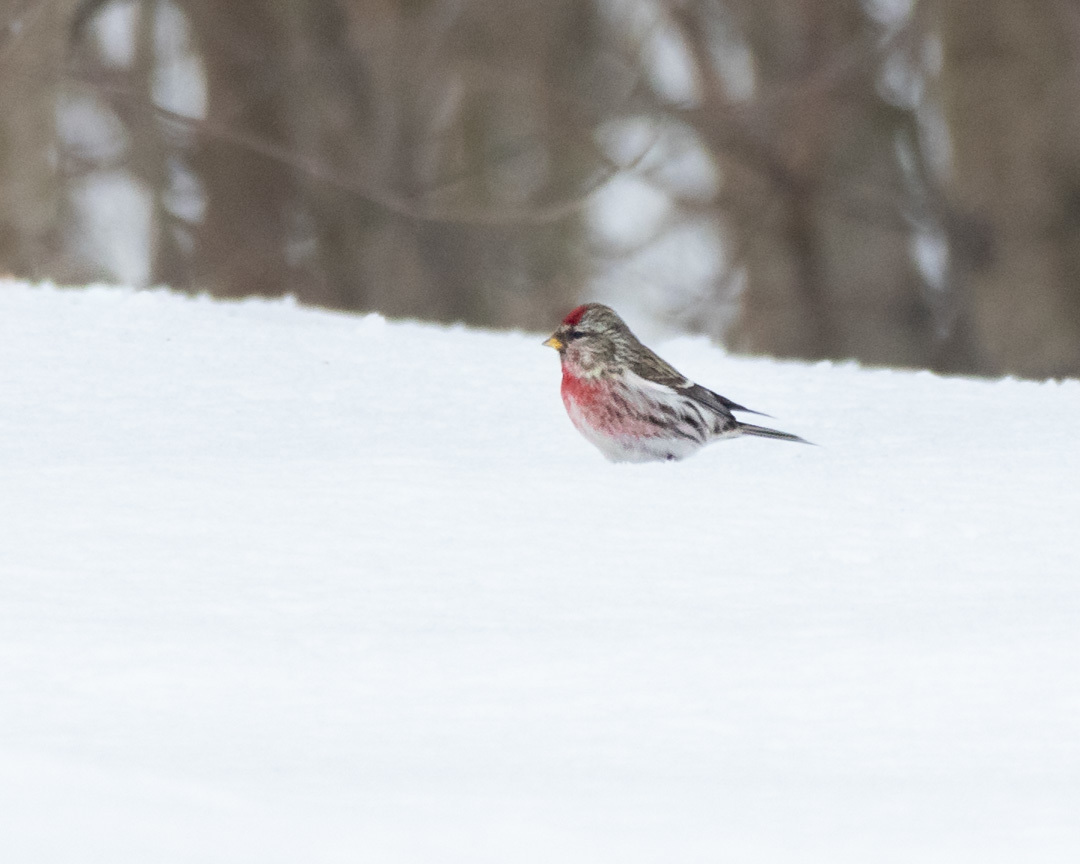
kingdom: Animalia
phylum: Chordata
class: Aves
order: Passeriformes
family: Fringillidae
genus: Acanthis
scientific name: Acanthis flammea
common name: Common redpoll
